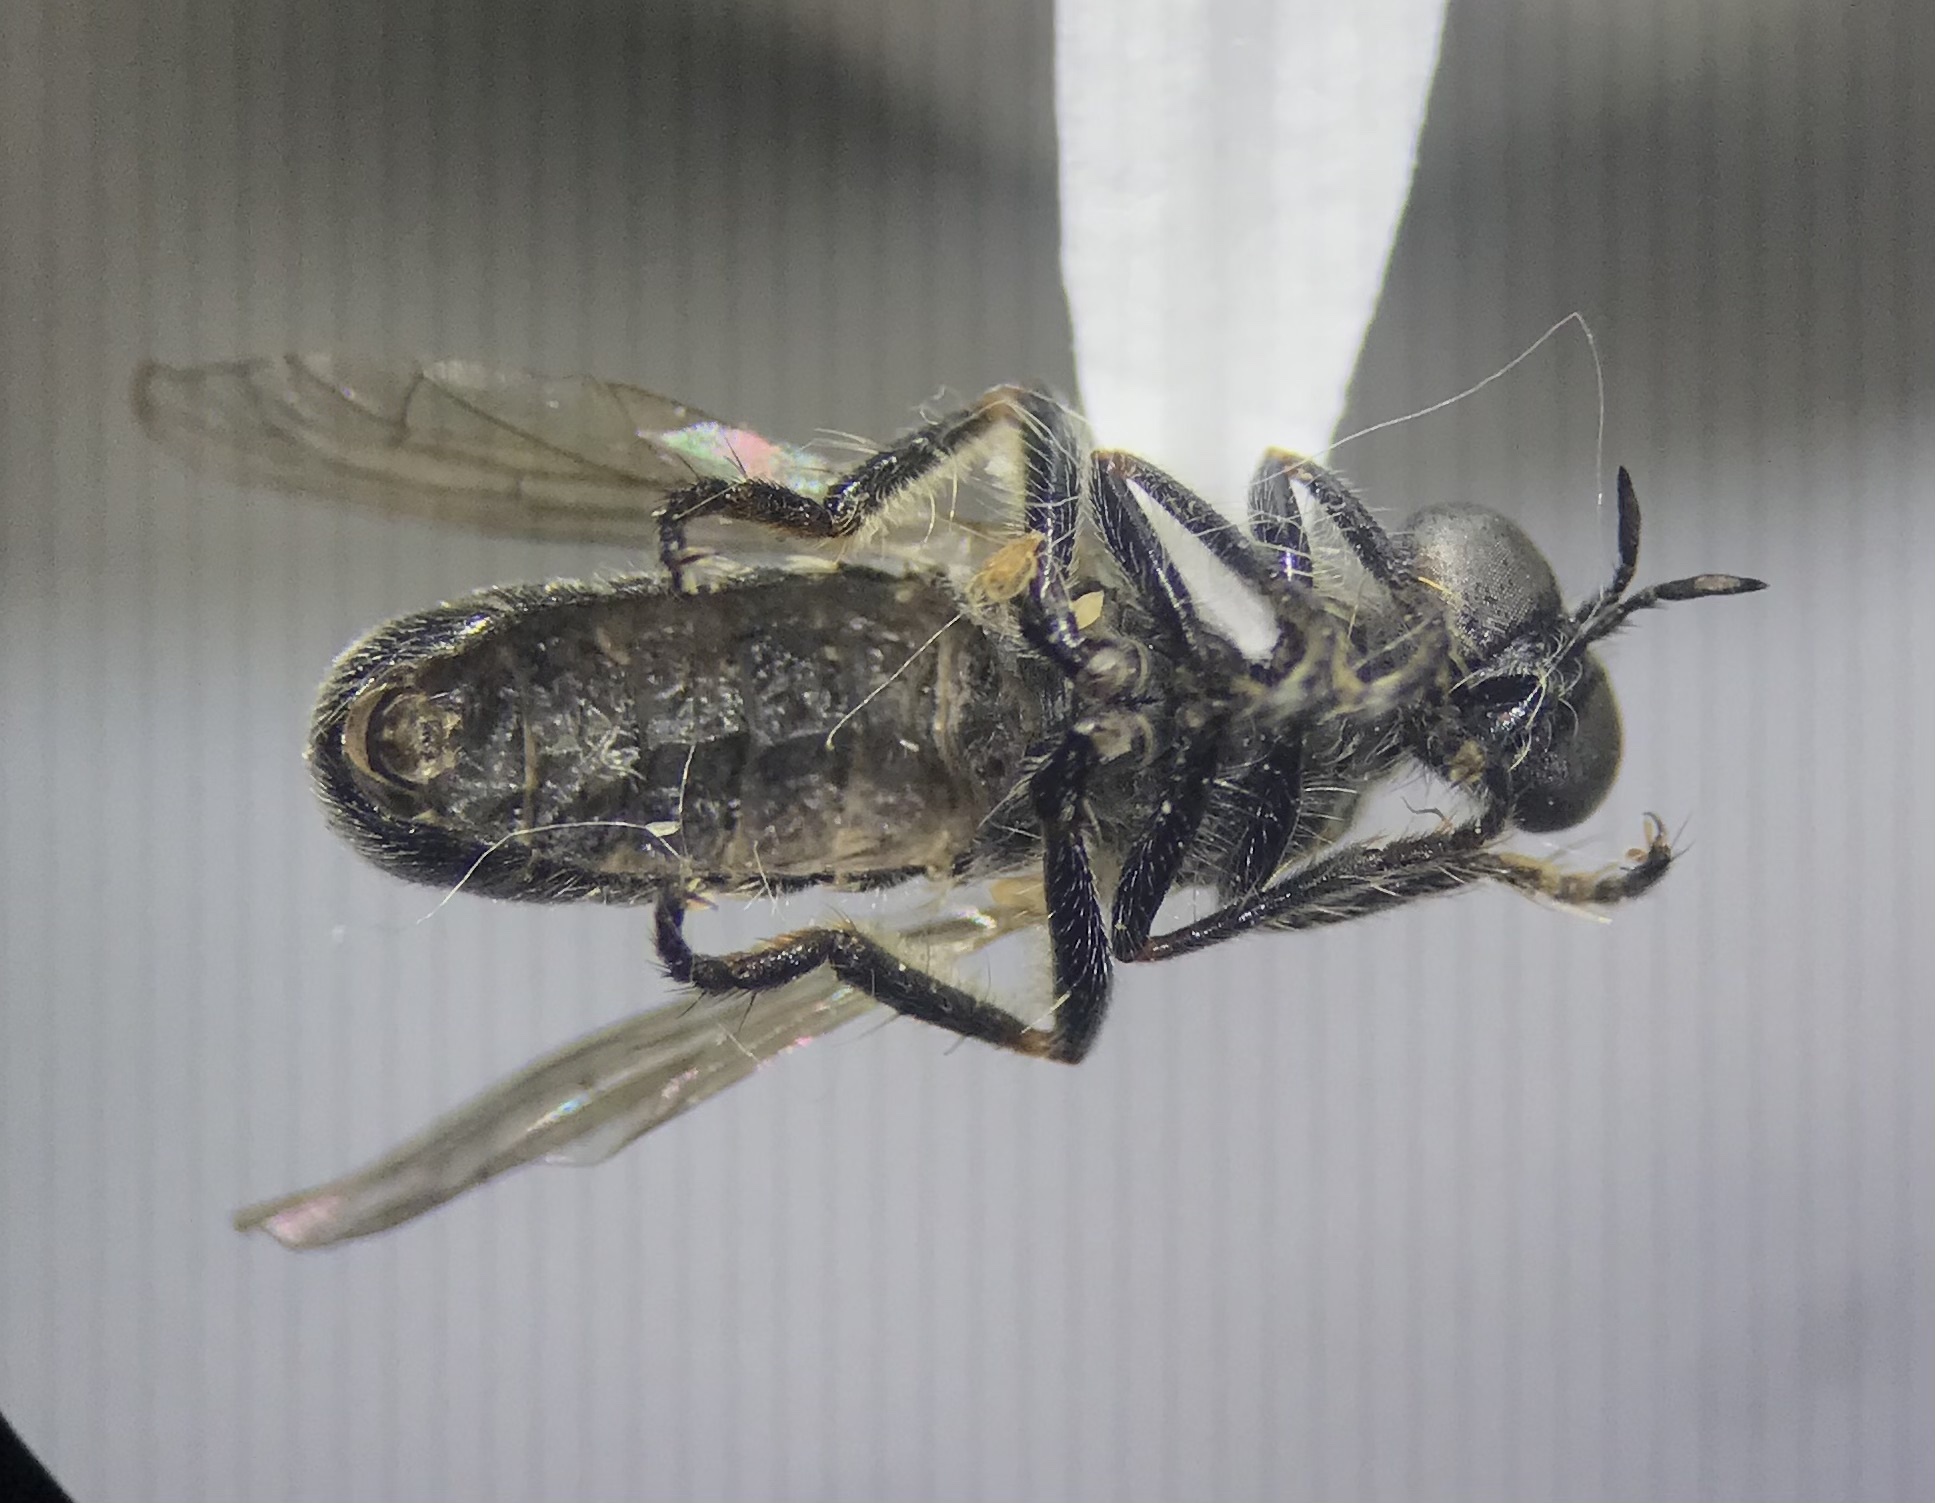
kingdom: Animalia
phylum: Arthropoda
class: Insecta
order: Diptera
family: Asilidae
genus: Atomosia
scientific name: Atomosia melanopogon
